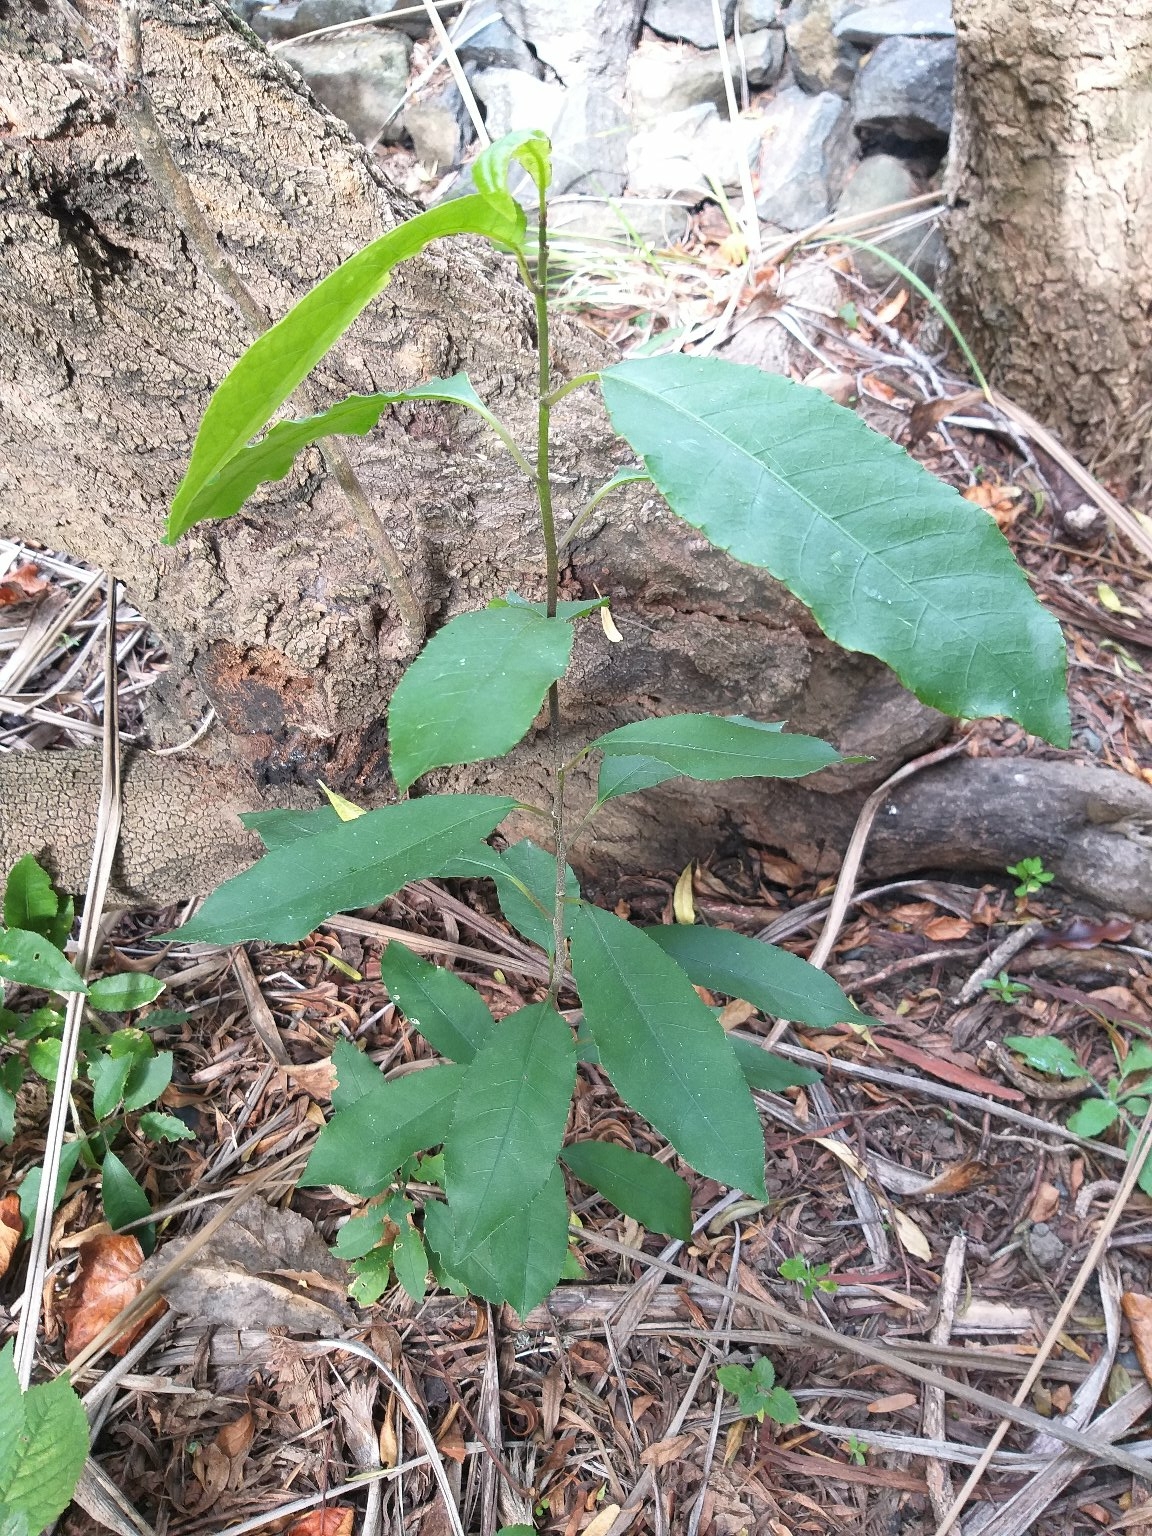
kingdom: Plantae
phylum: Tracheophyta
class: Magnoliopsida
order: Malpighiales
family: Violaceae
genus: Melicytus
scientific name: Melicytus ramiflorus
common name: Mahoe
